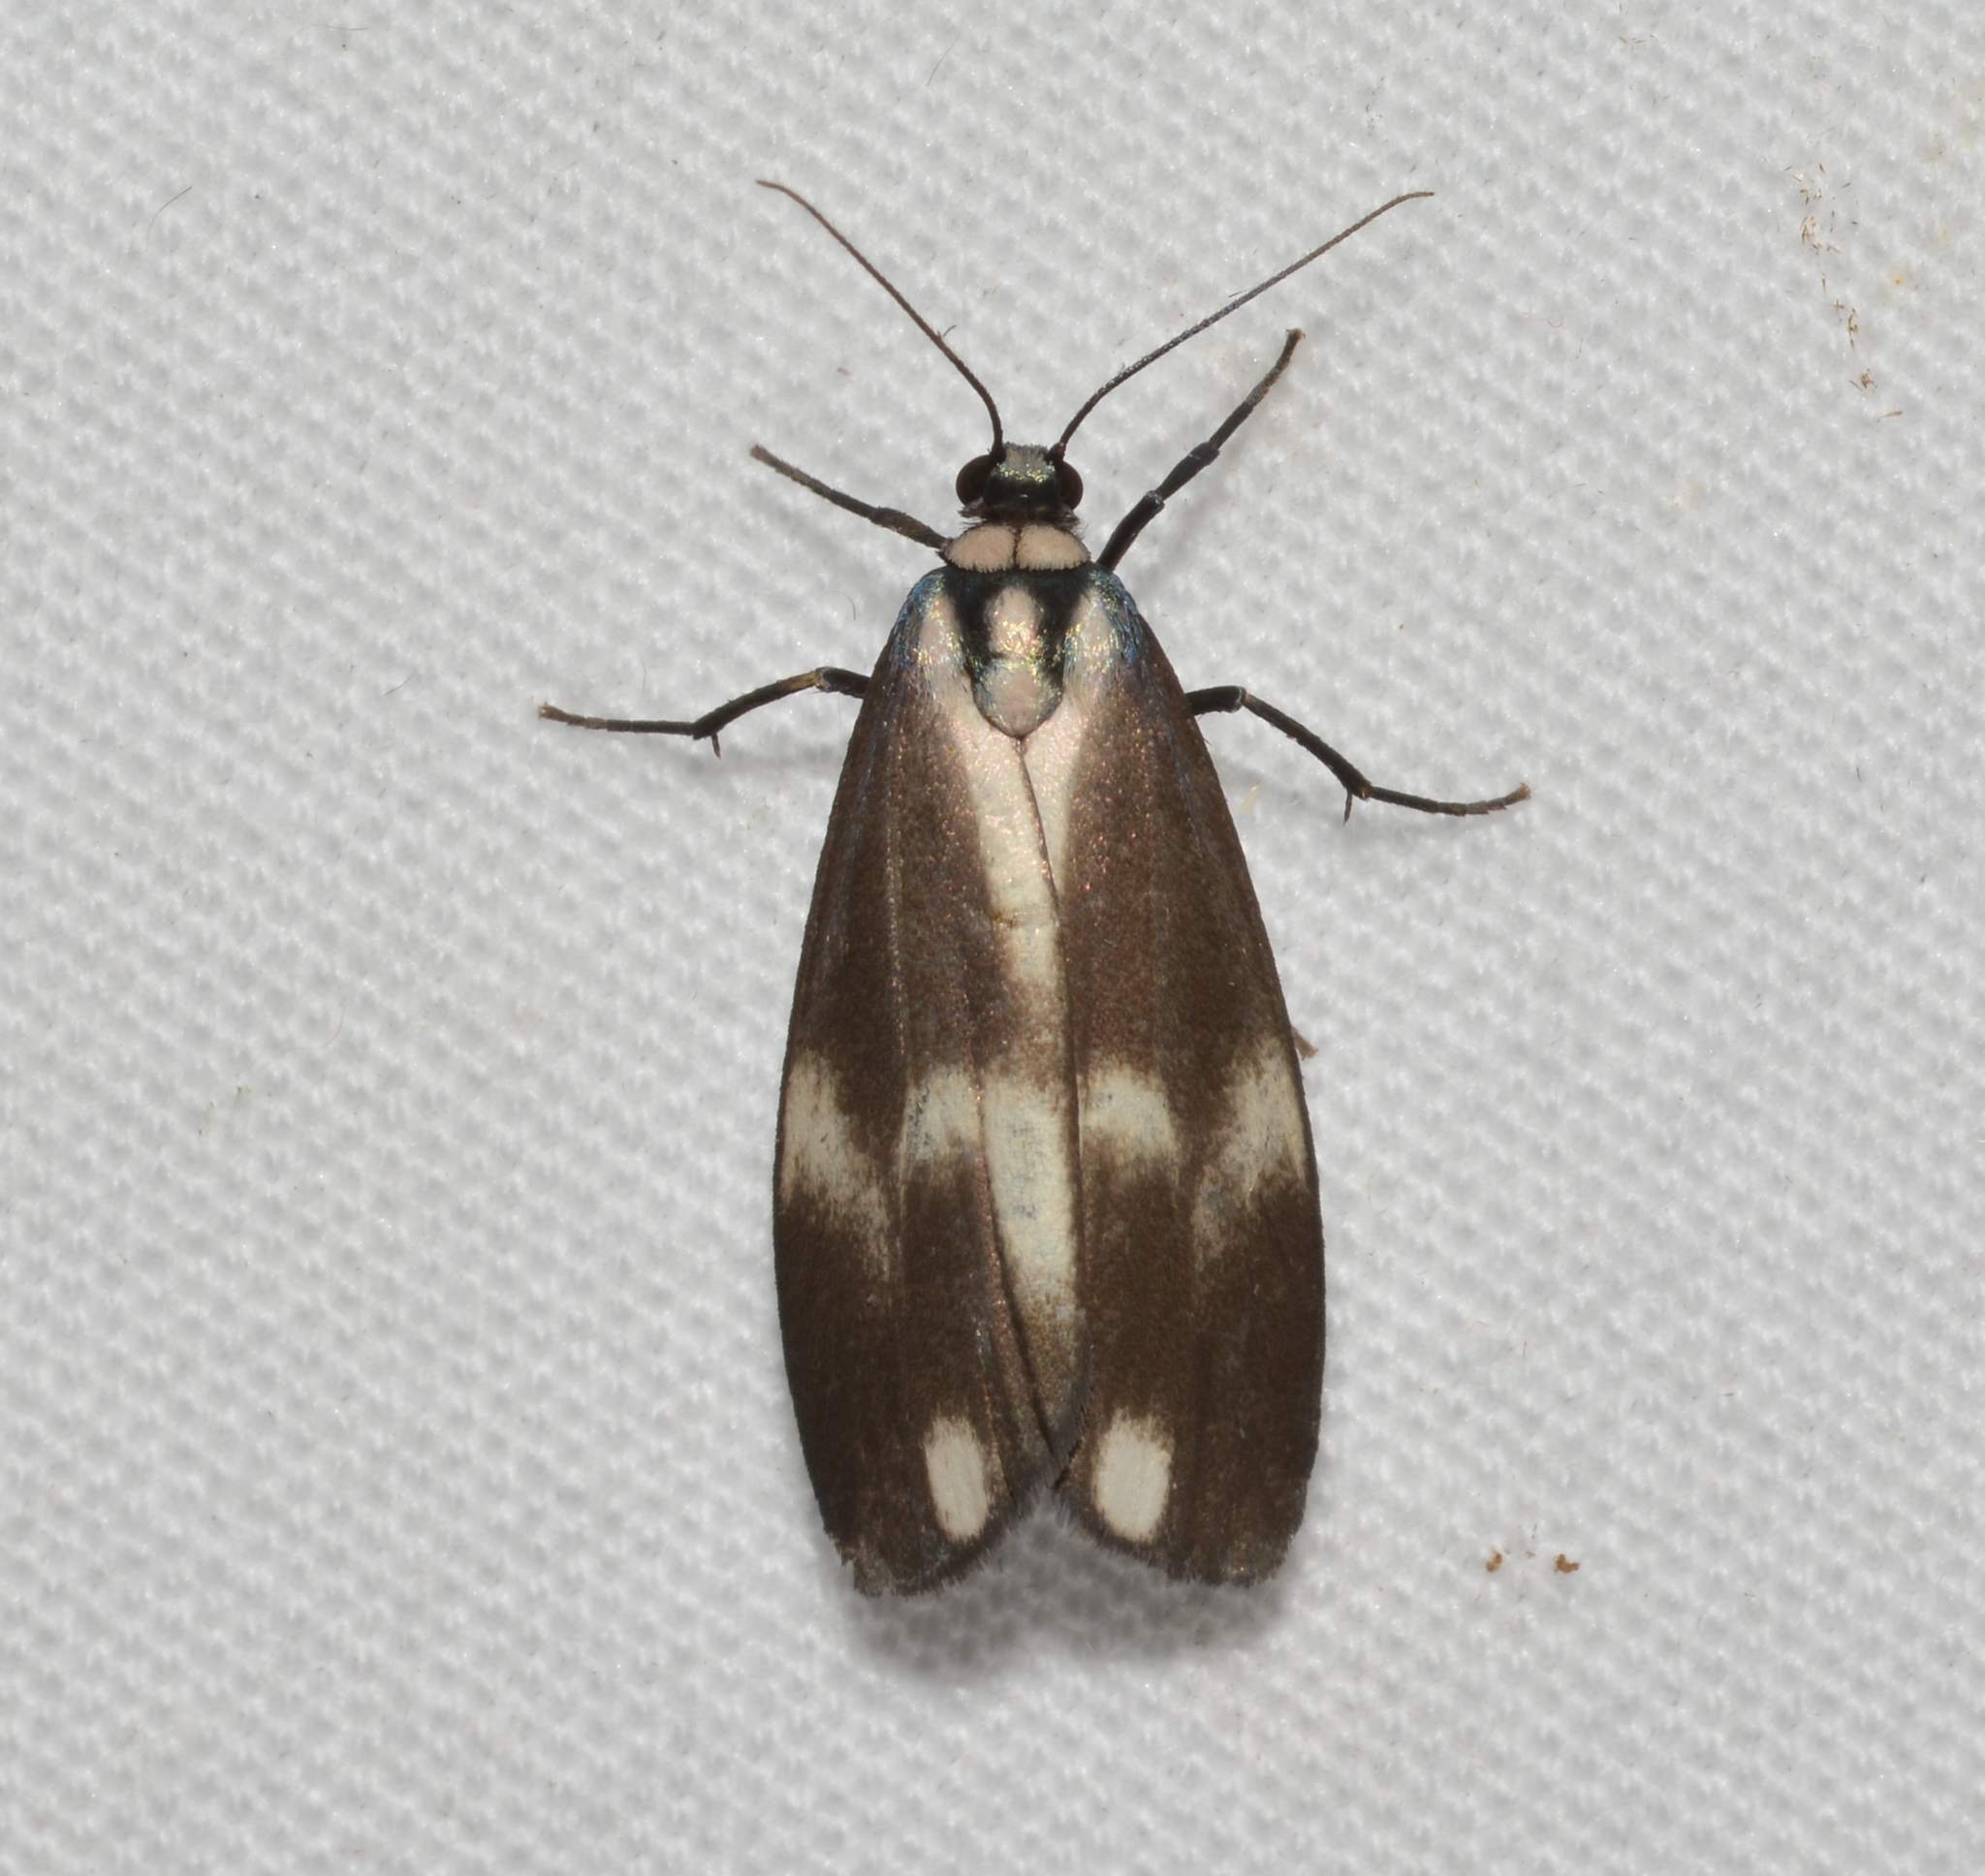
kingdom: Animalia
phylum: Arthropoda
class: Insecta
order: Lepidoptera
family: Erebidae
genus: Areva
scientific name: Areva trigemmis
